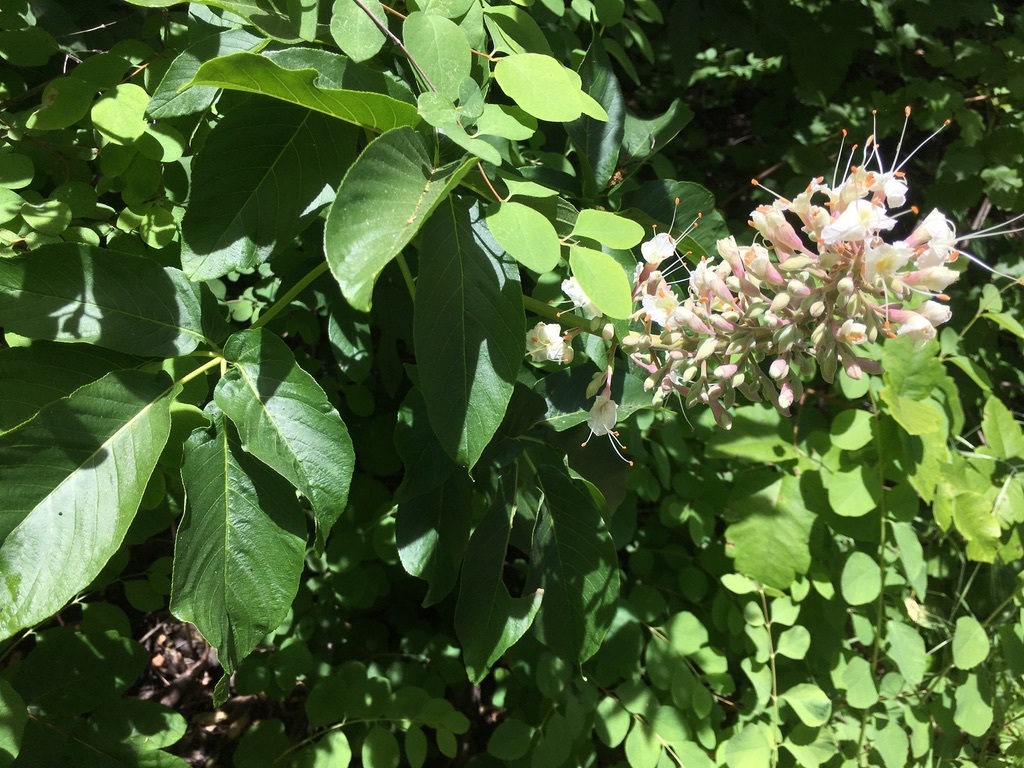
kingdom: Plantae
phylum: Tracheophyta
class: Magnoliopsida
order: Sapindales
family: Sapindaceae
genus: Aesculus
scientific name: Aesculus californica
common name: California buckeye
